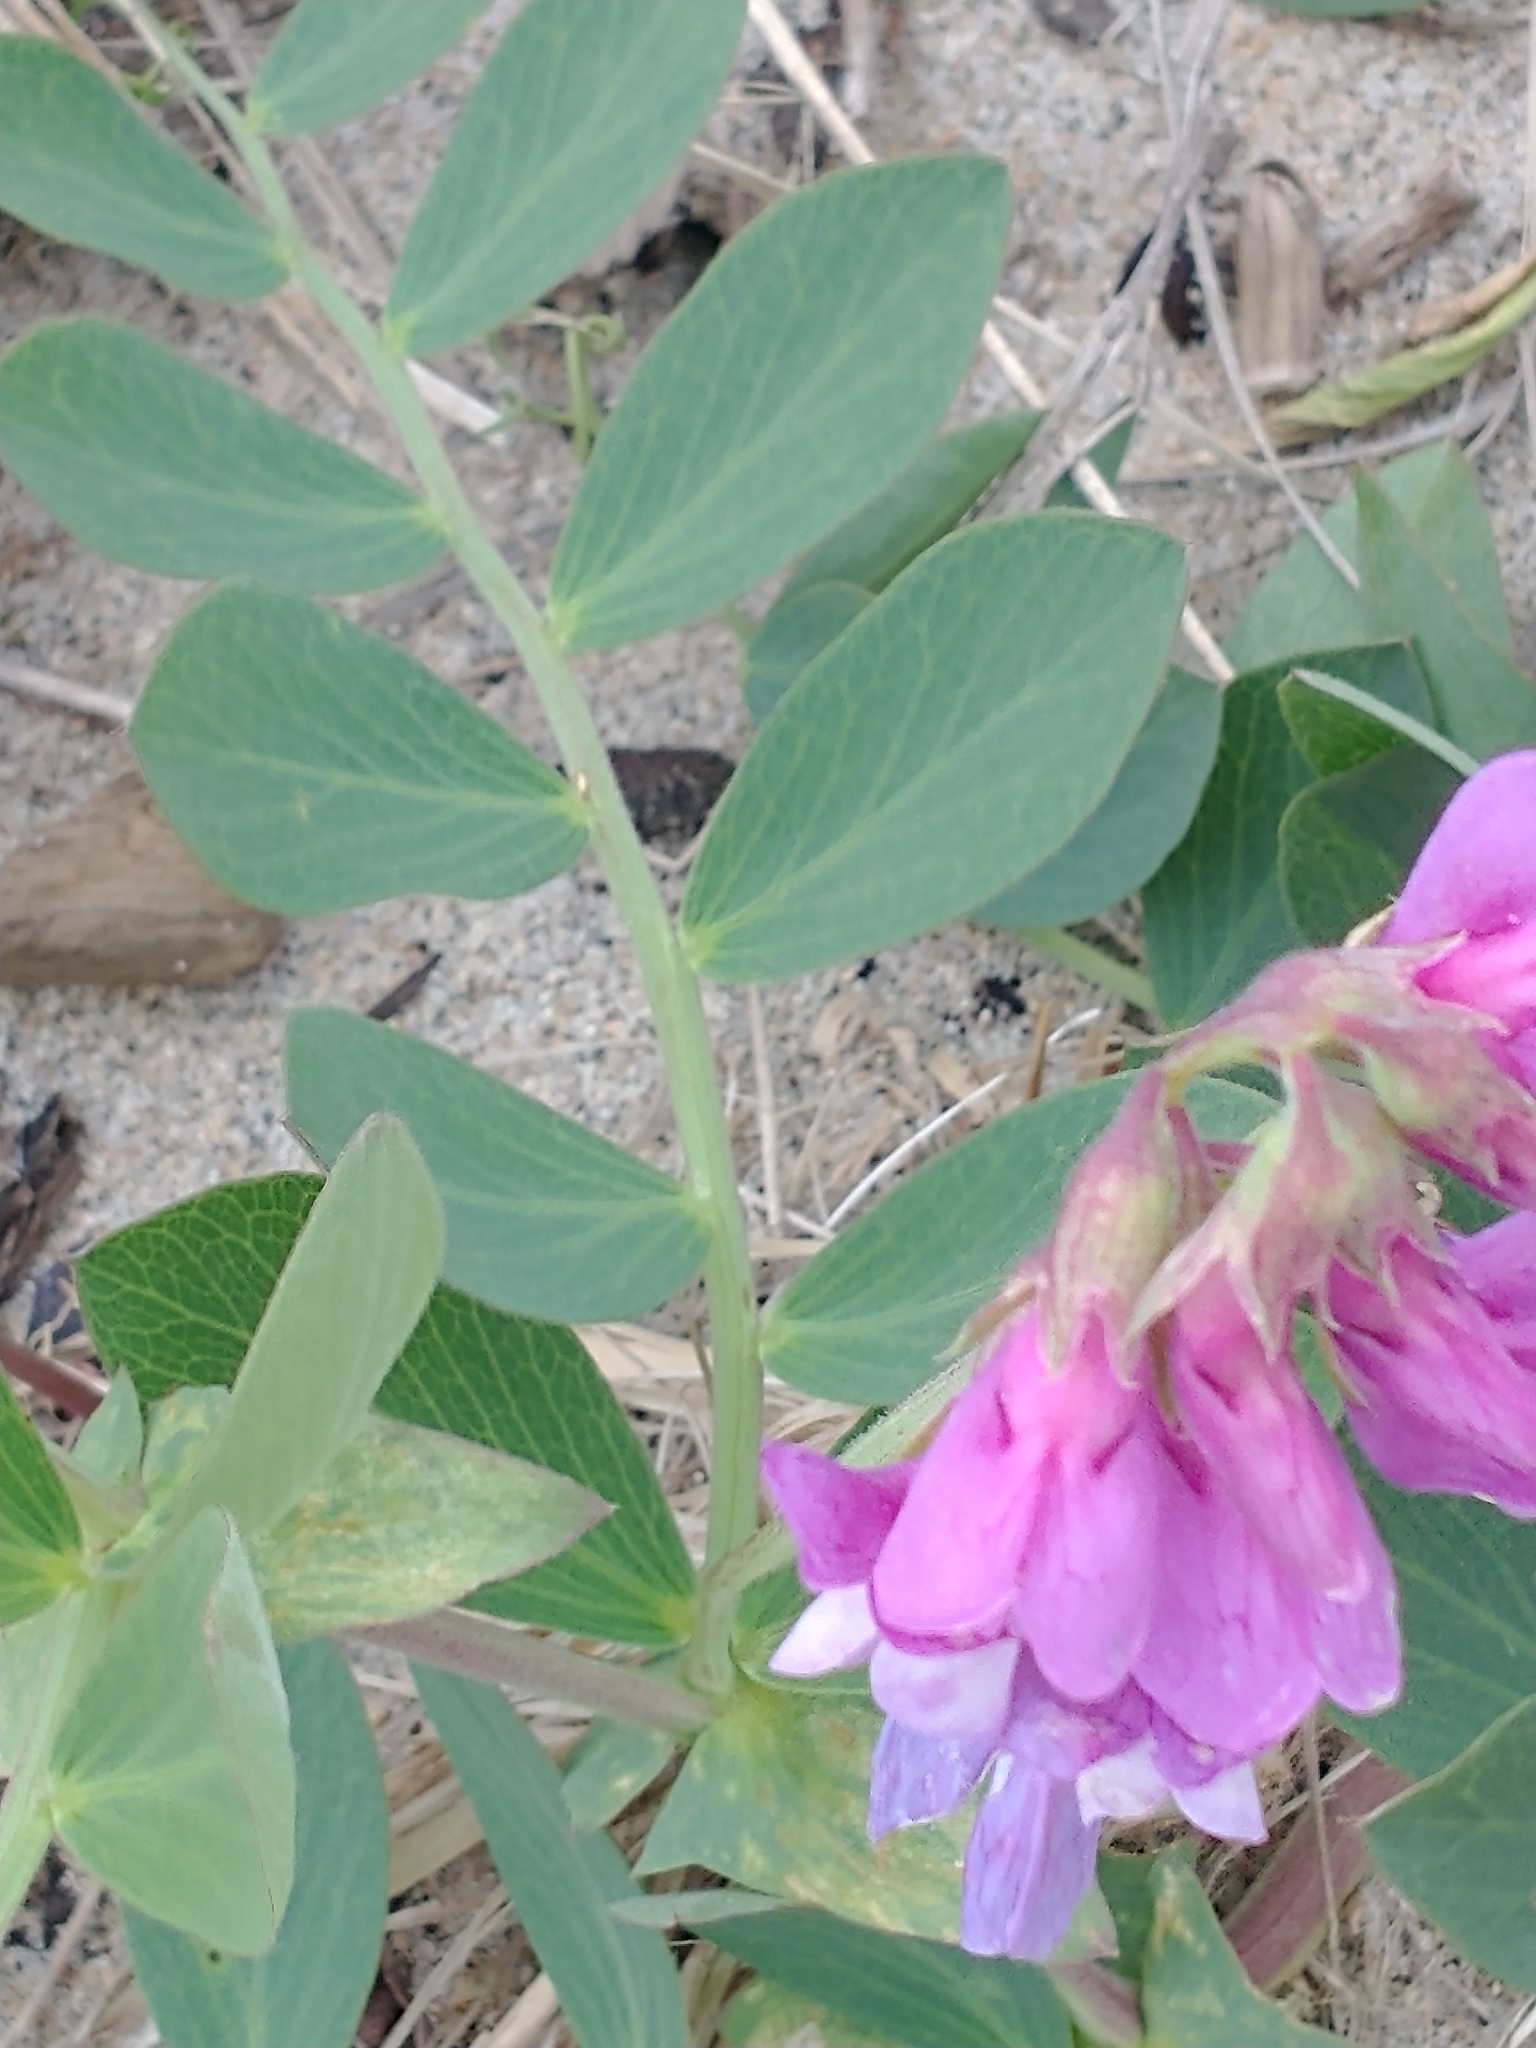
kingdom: Plantae
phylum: Tracheophyta
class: Magnoliopsida
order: Fabales
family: Fabaceae
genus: Lathyrus
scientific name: Lathyrus japonicus
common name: Sea pea
